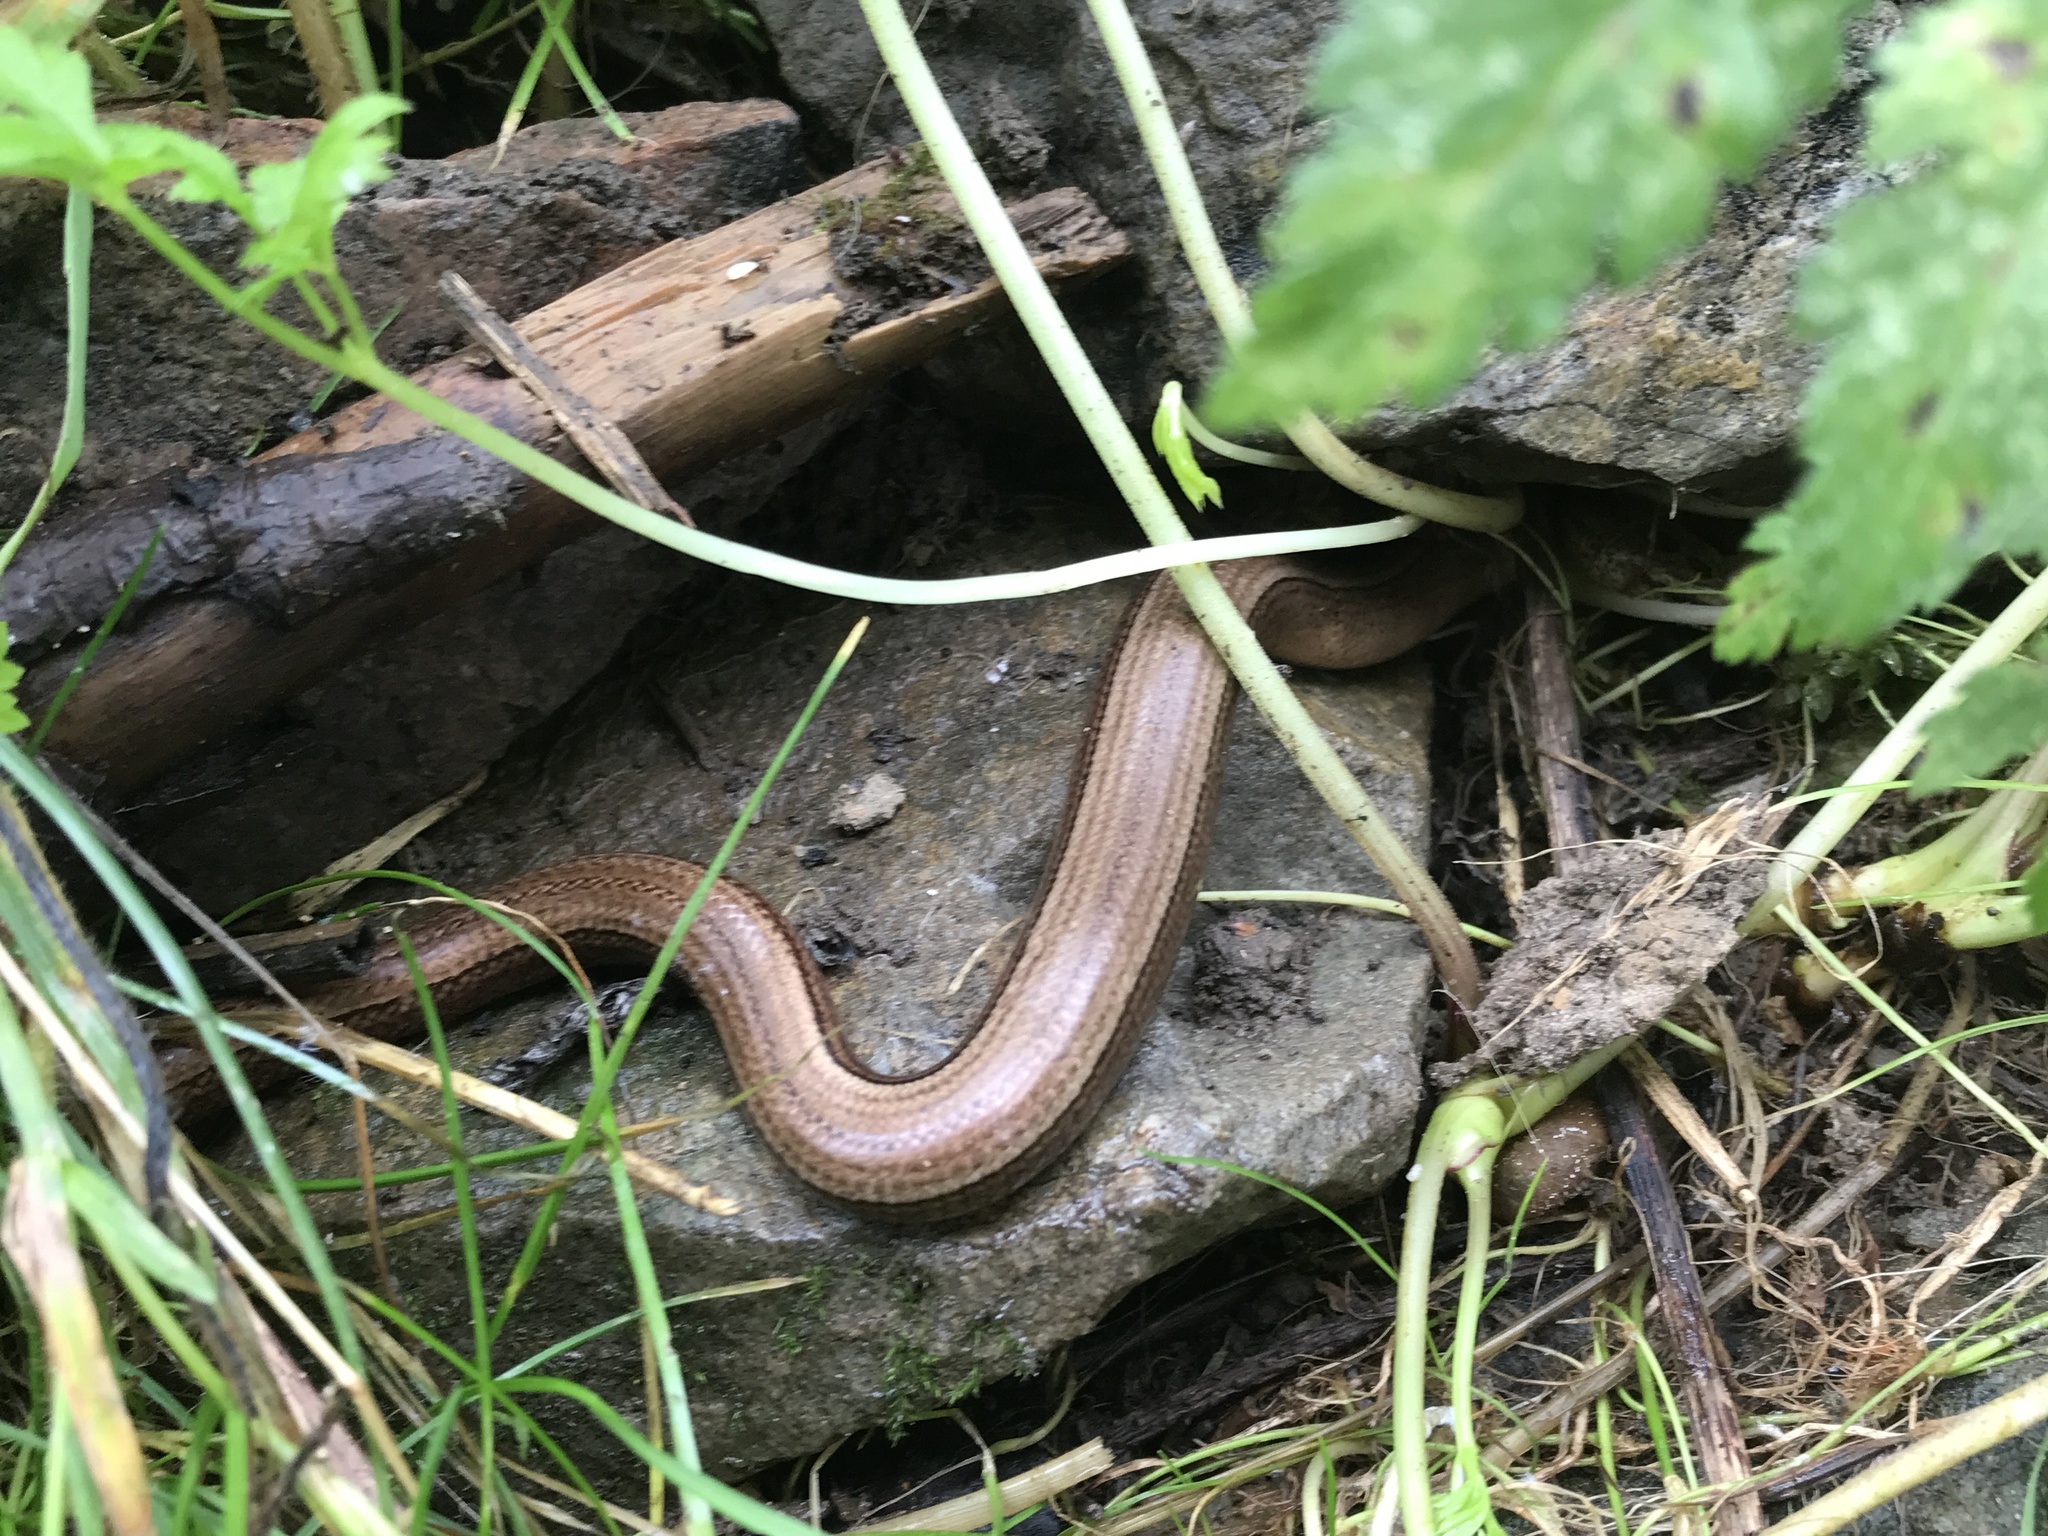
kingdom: Animalia
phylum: Chordata
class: Squamata
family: Anguidae
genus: Anguis
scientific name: Anguis fragilis
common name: Slow worm
